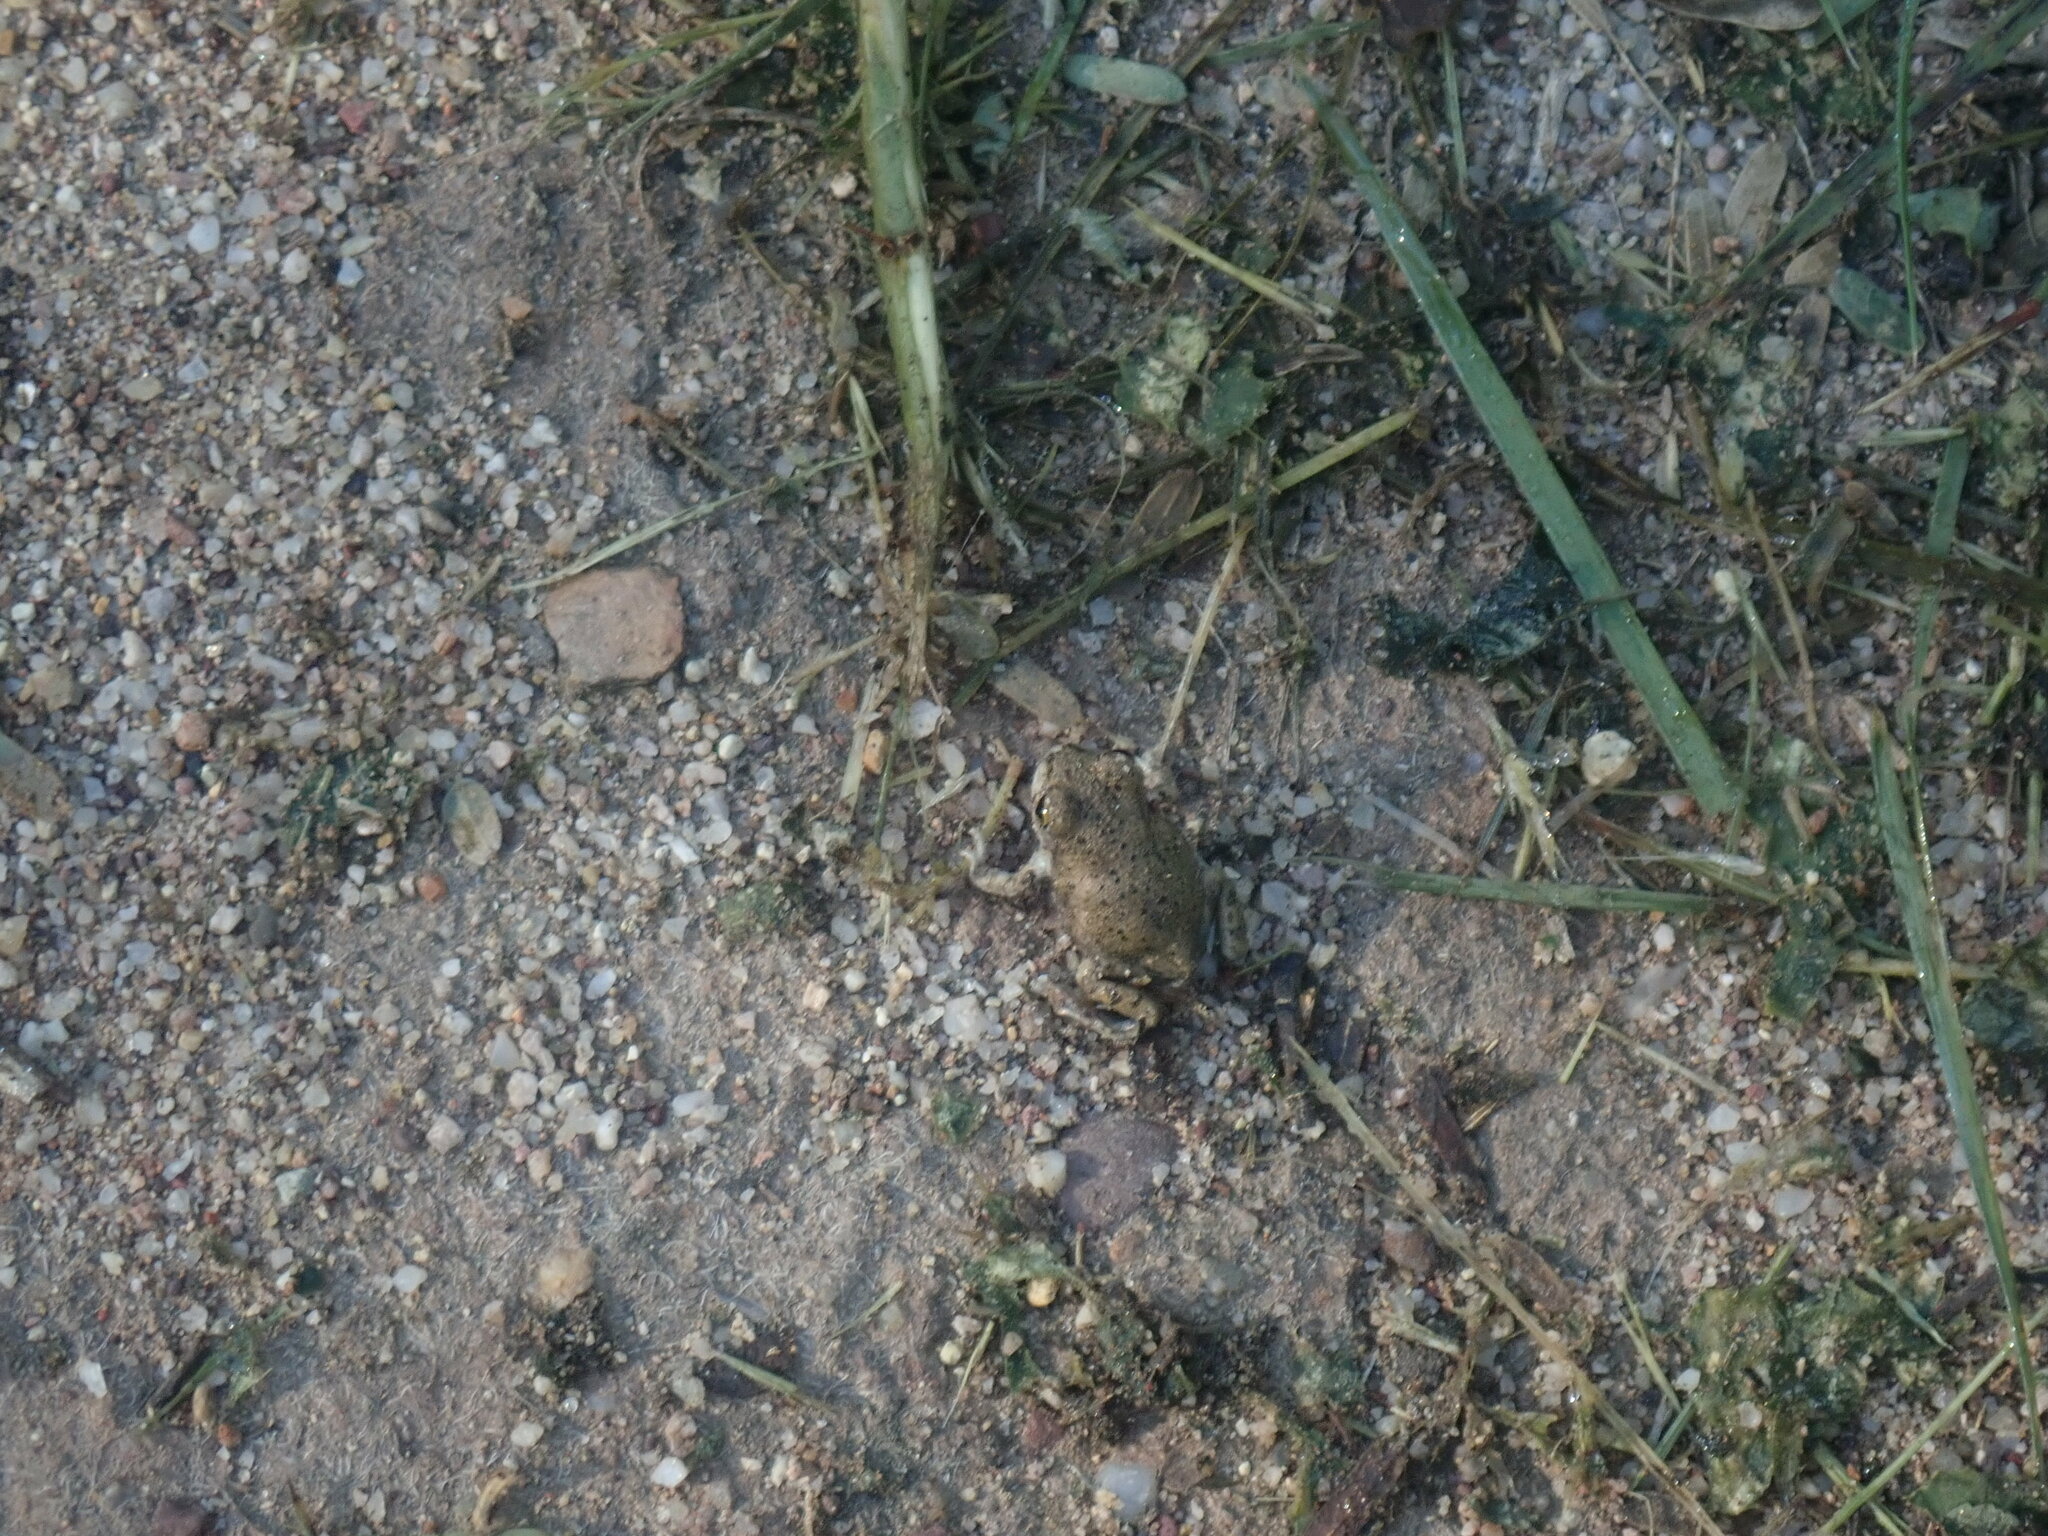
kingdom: Animalia
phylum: Chordata
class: Amphibia
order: Anura
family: Scaphiopodidae
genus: Spea
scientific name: Spea multiplicata
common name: Mexican spadefoot
